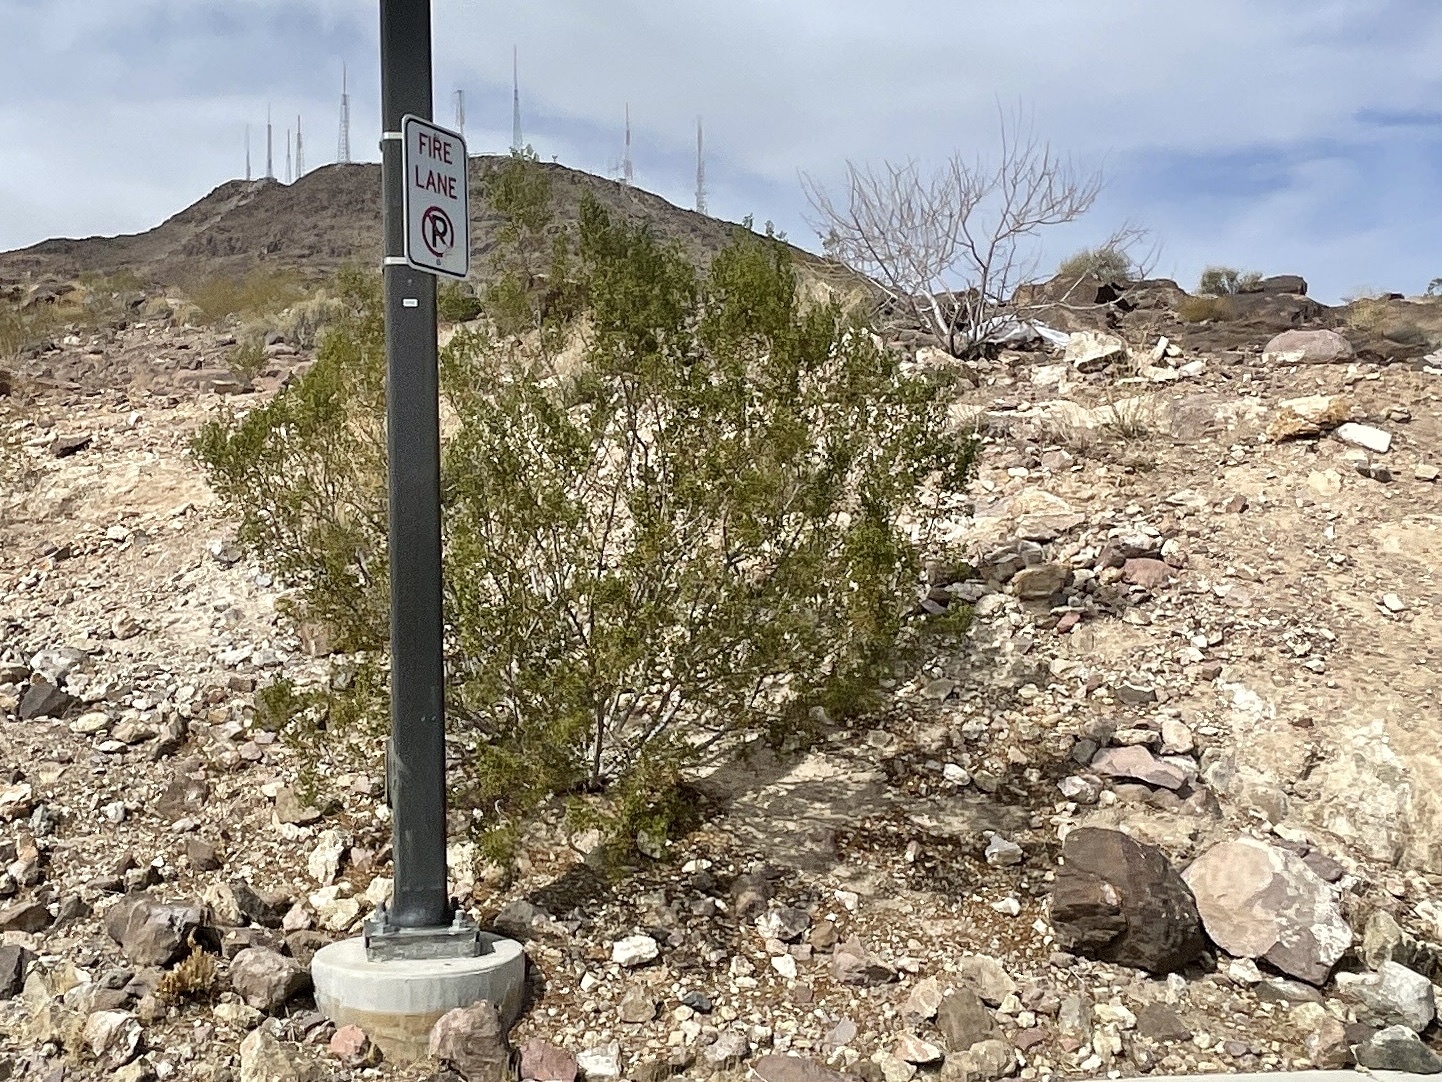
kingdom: Plantae
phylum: Tracheophyta
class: Magnoliopsida
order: Zygophyllales
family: Zygophyllaceae
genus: Larrea
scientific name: Larrea tridentata
